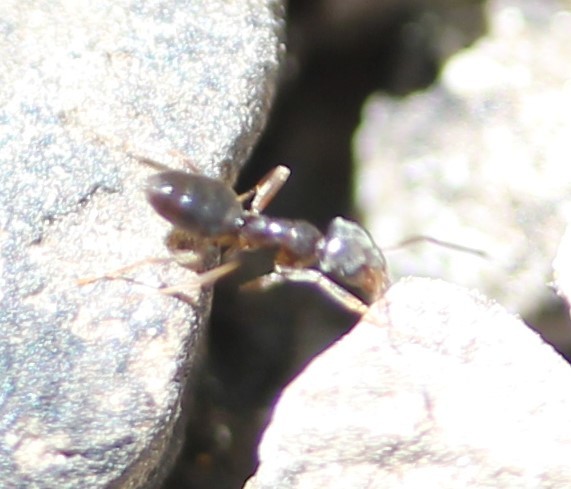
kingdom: Animalia
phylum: Arthropoda
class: Insecta
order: Hymenoptera
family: Formicidae
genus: Tapinoma
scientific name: Tapinoma sessile
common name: Odorous house ant
